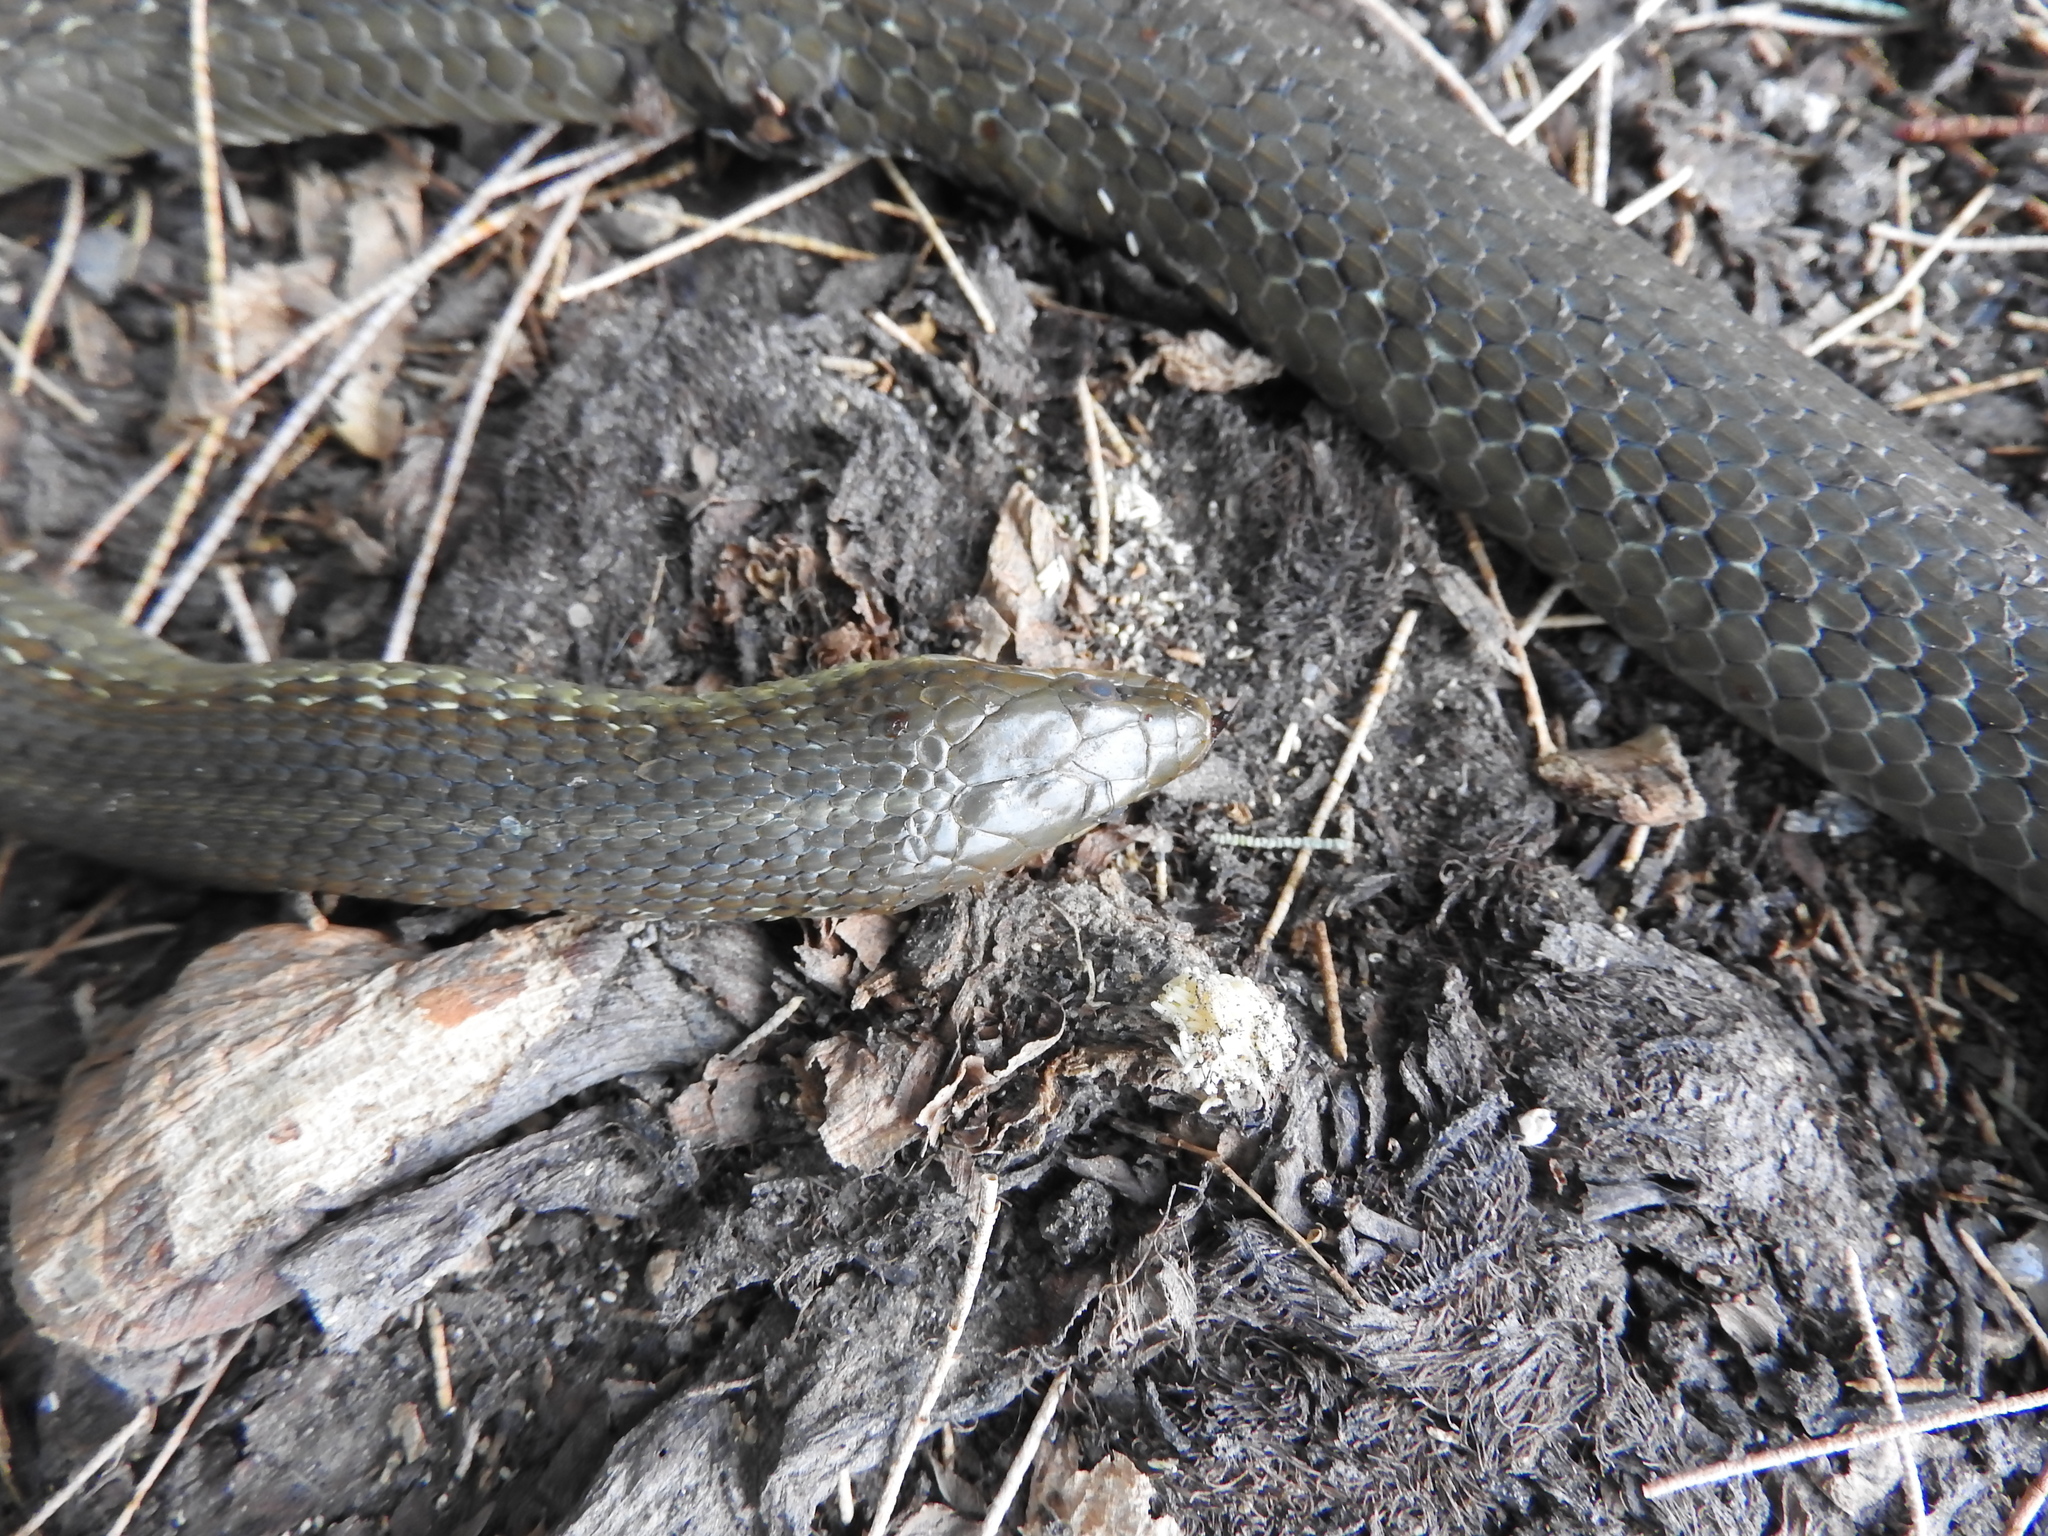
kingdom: Animalia
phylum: Chordata
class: Squamata
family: Colubridae
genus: Thamnophis
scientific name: Thamnophis melanogaster
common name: Blackbelly garter snake
